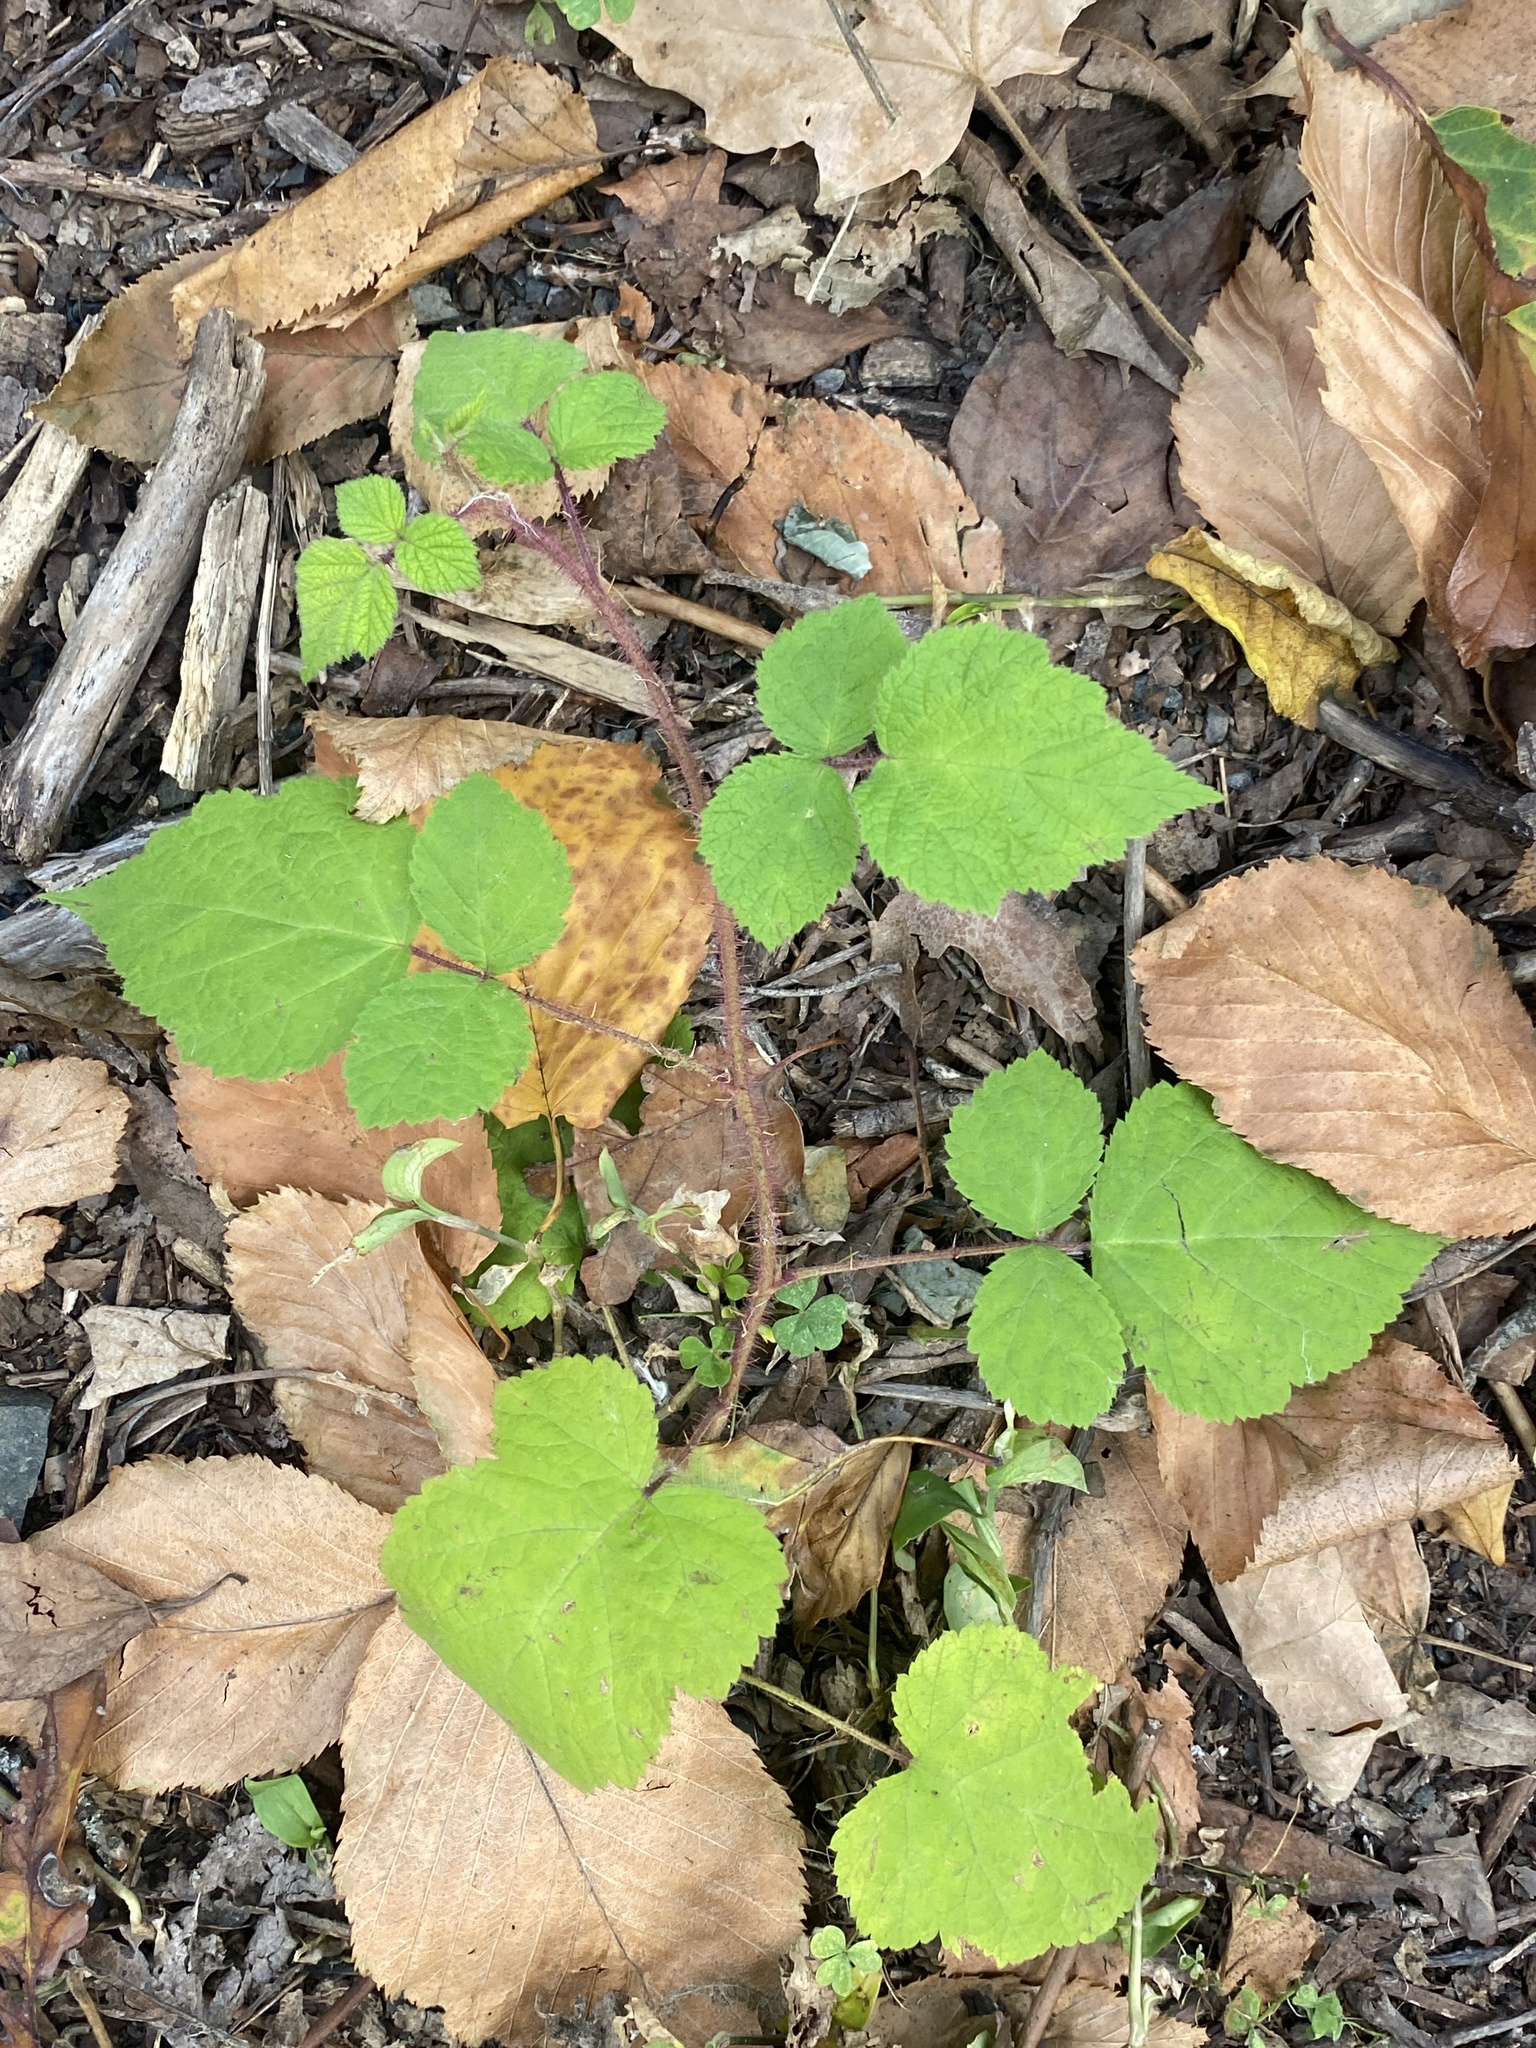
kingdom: Plantae
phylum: Tracheophyta
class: Magnoliopsida
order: Rosales
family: Rosaceae
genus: Rubus
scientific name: Rubus phoenicolasius
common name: Japanese wineberry
